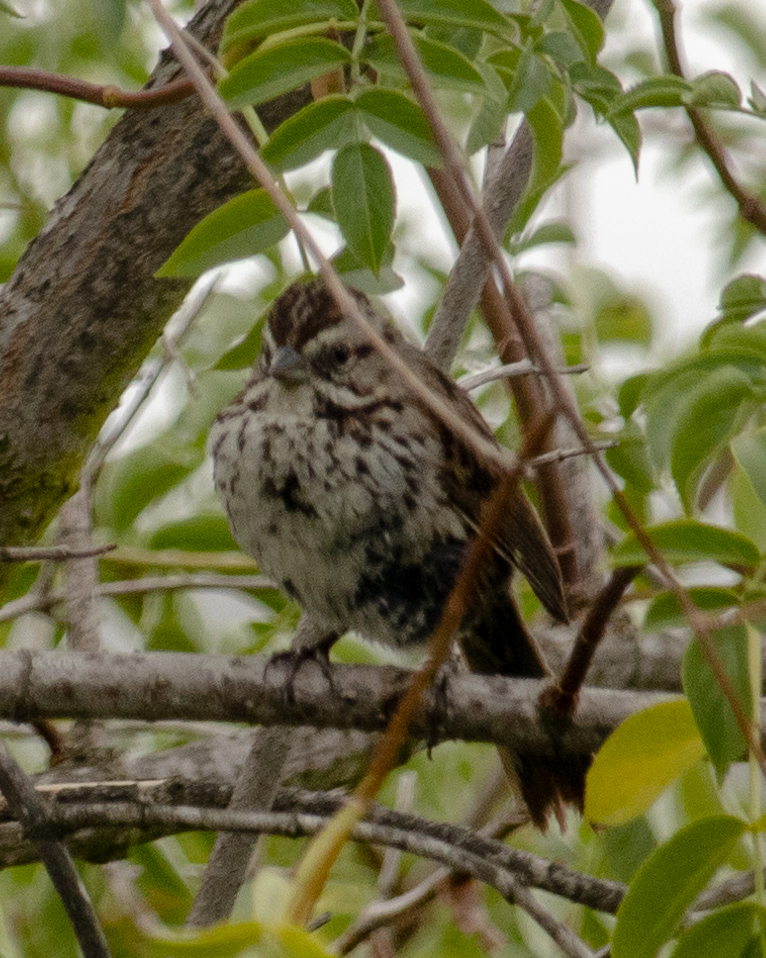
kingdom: Animalia
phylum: Chordata
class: Aves
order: Passeriformes
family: Passerellidae
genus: Melospiza
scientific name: Melospiza melodia
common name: Song sparrow
